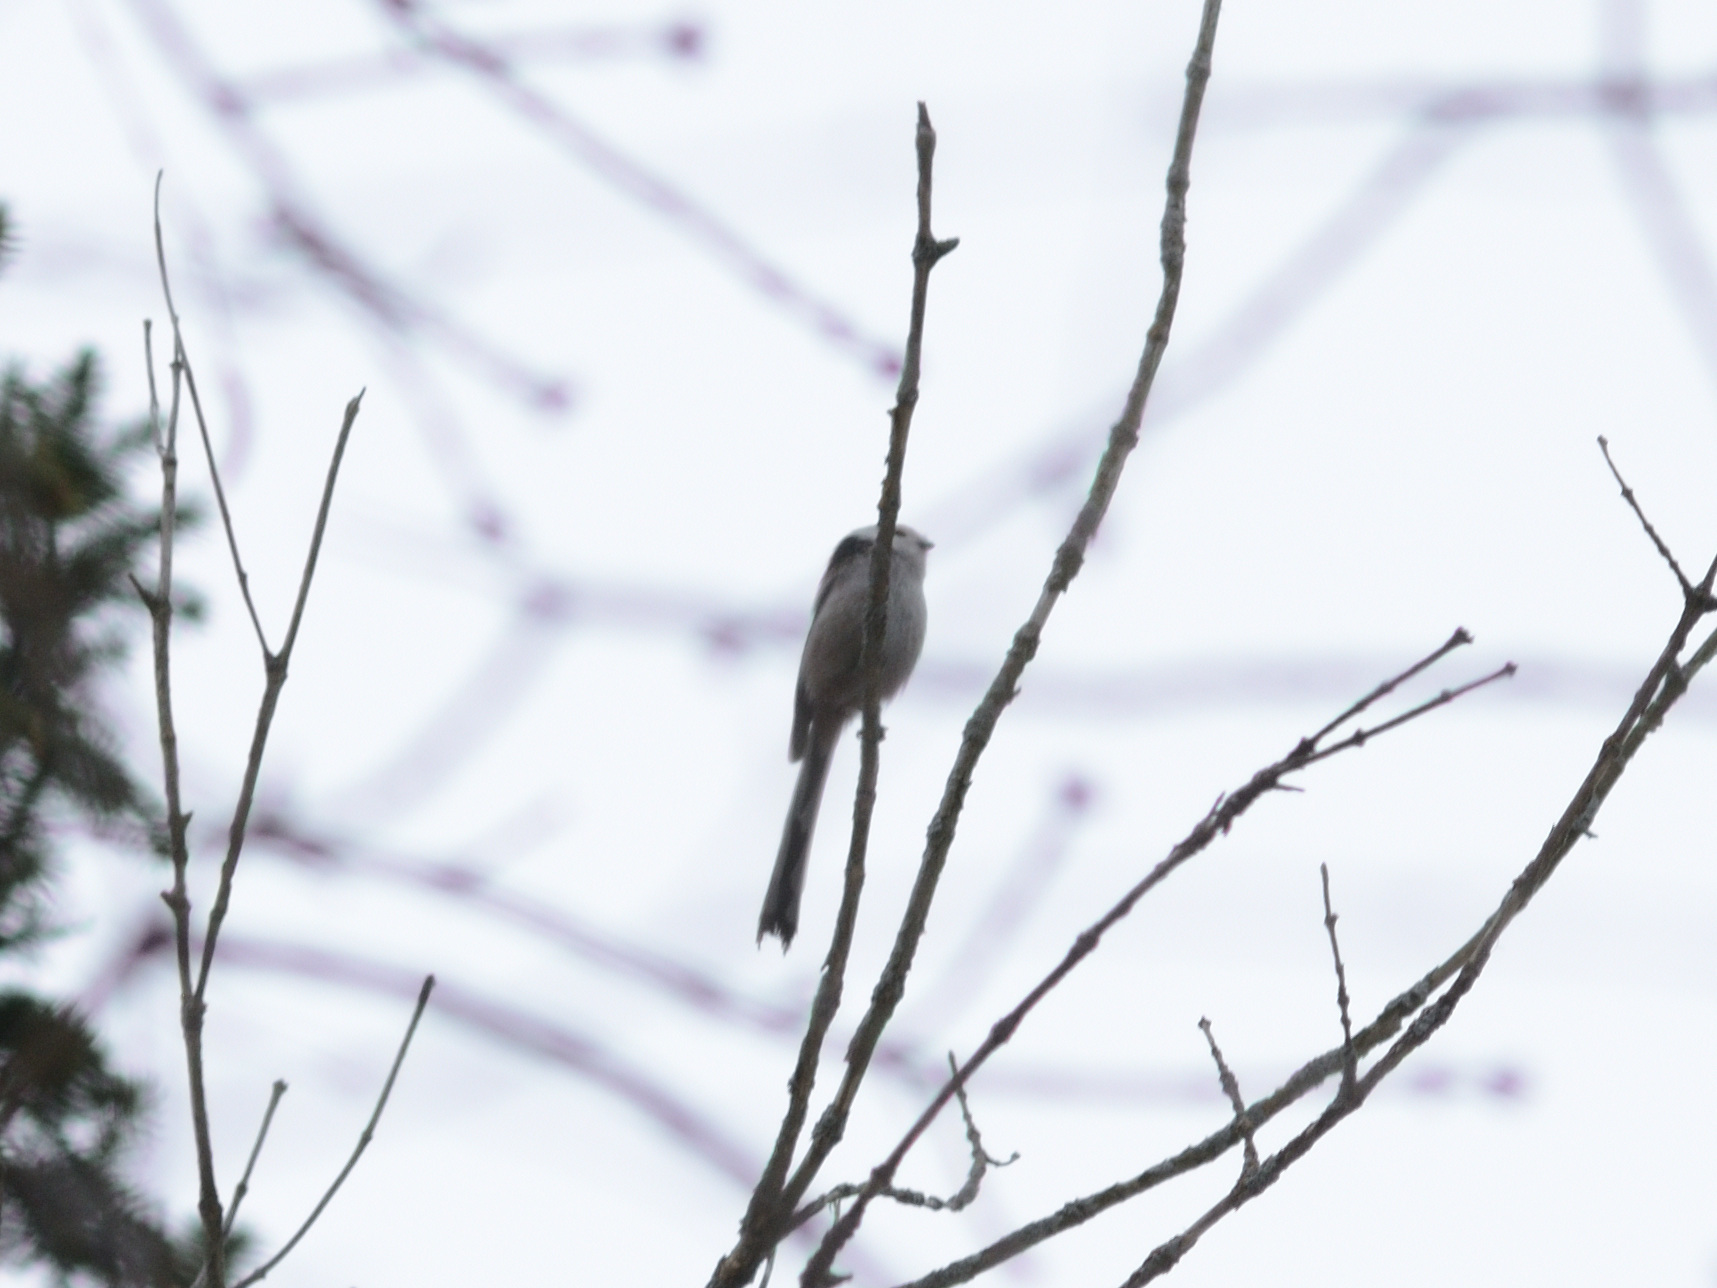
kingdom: Animalia
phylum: Chordata
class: Aves
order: Passeriformes
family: Aegithalidae
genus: Aegithalos
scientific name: Aegithalos caudatus
